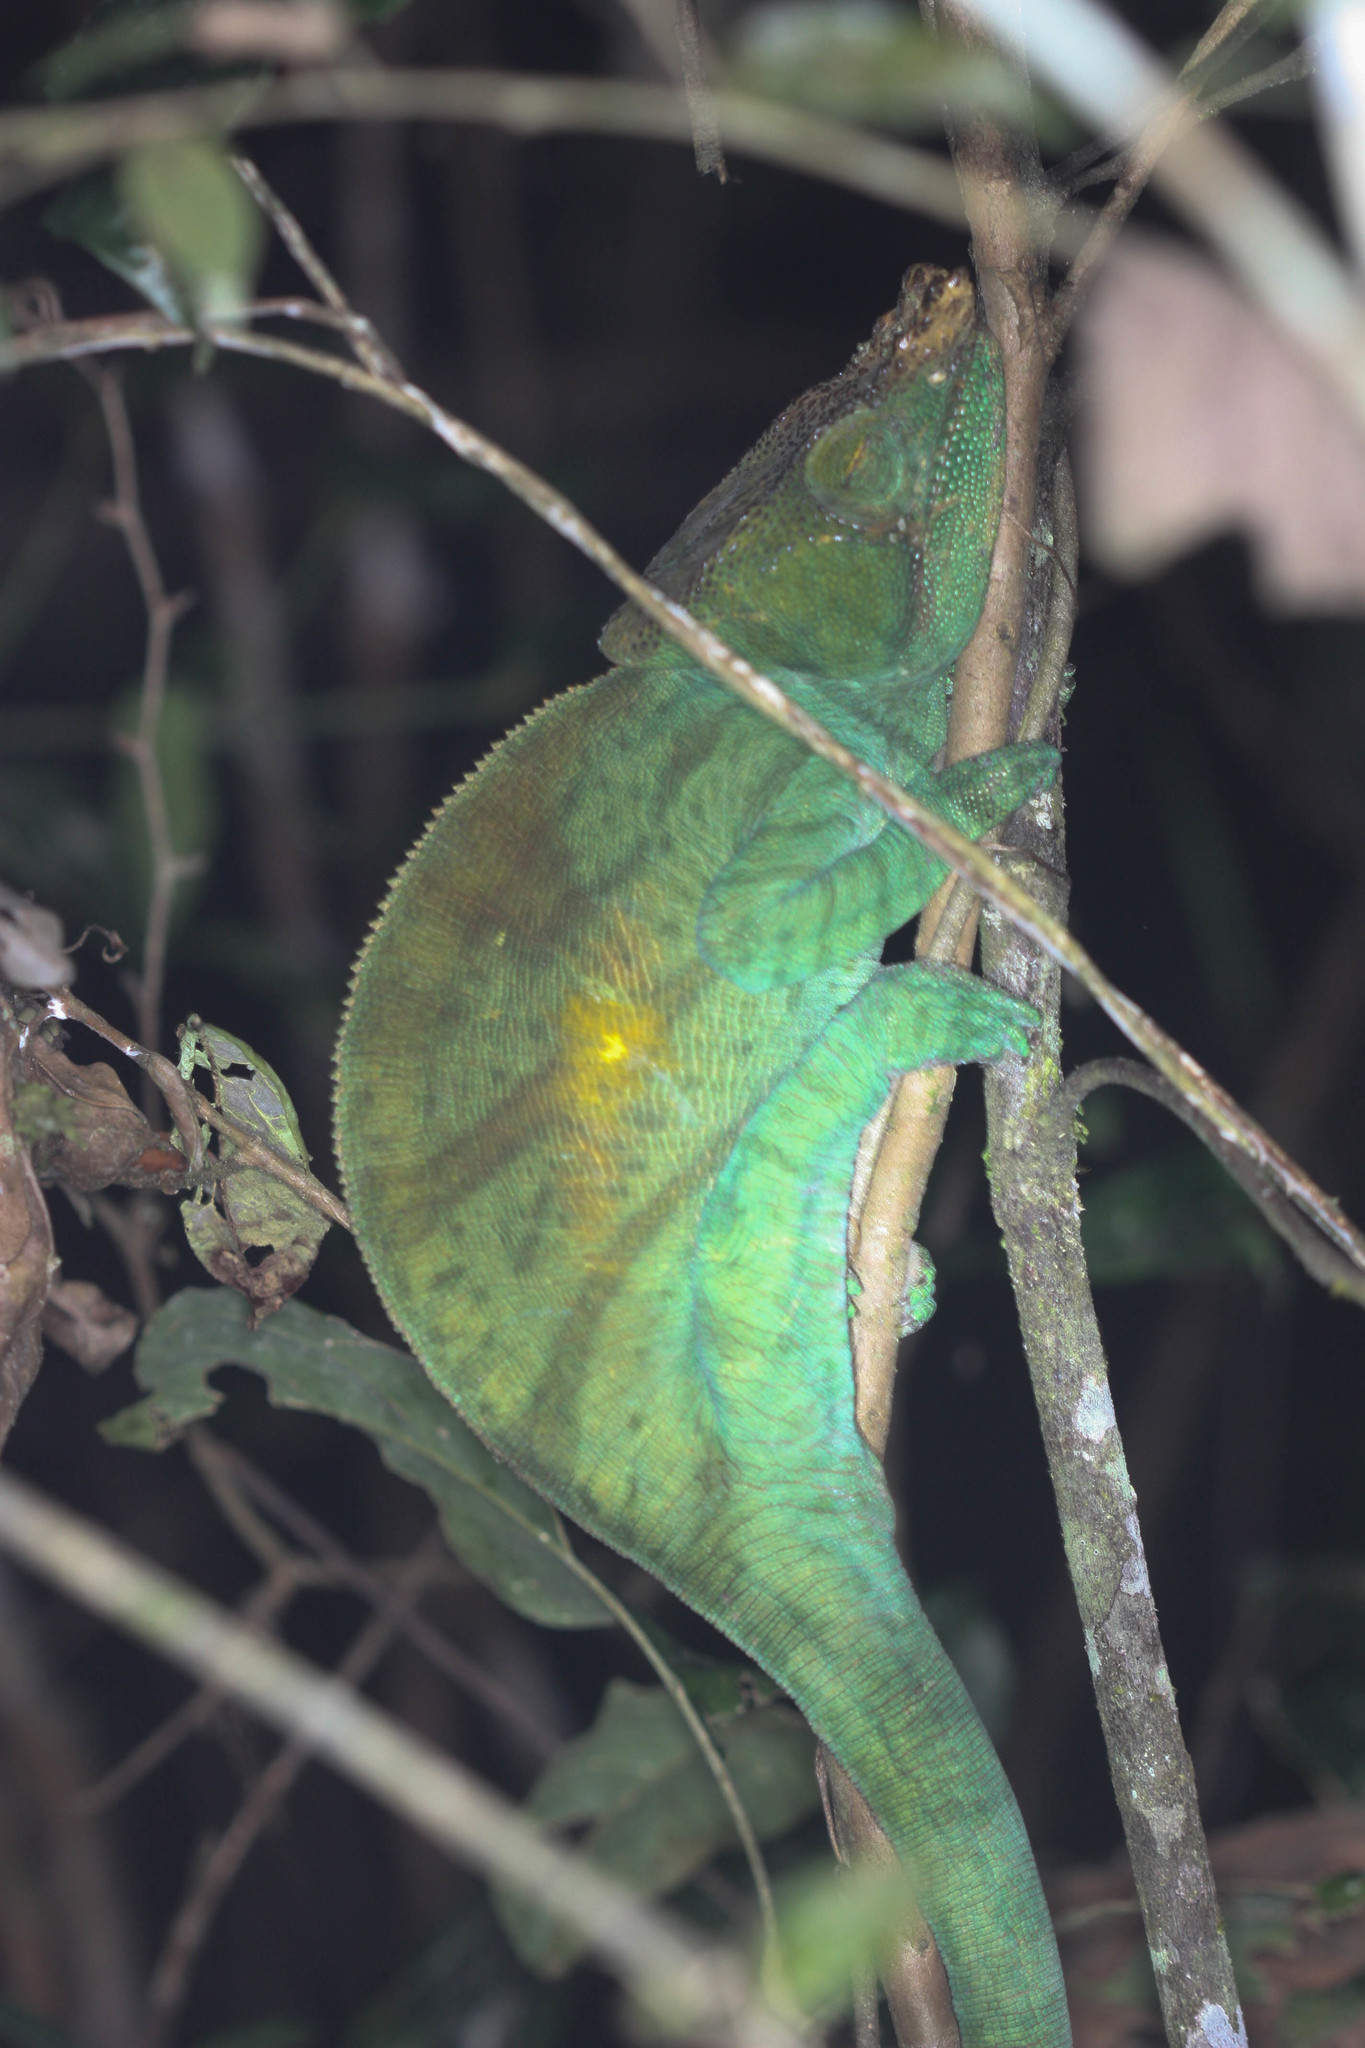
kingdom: Animalia
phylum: Chordata
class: Squamata
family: Chamaeleonidae
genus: Calumma
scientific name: Calumma parsonii
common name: Parson's chameleon
